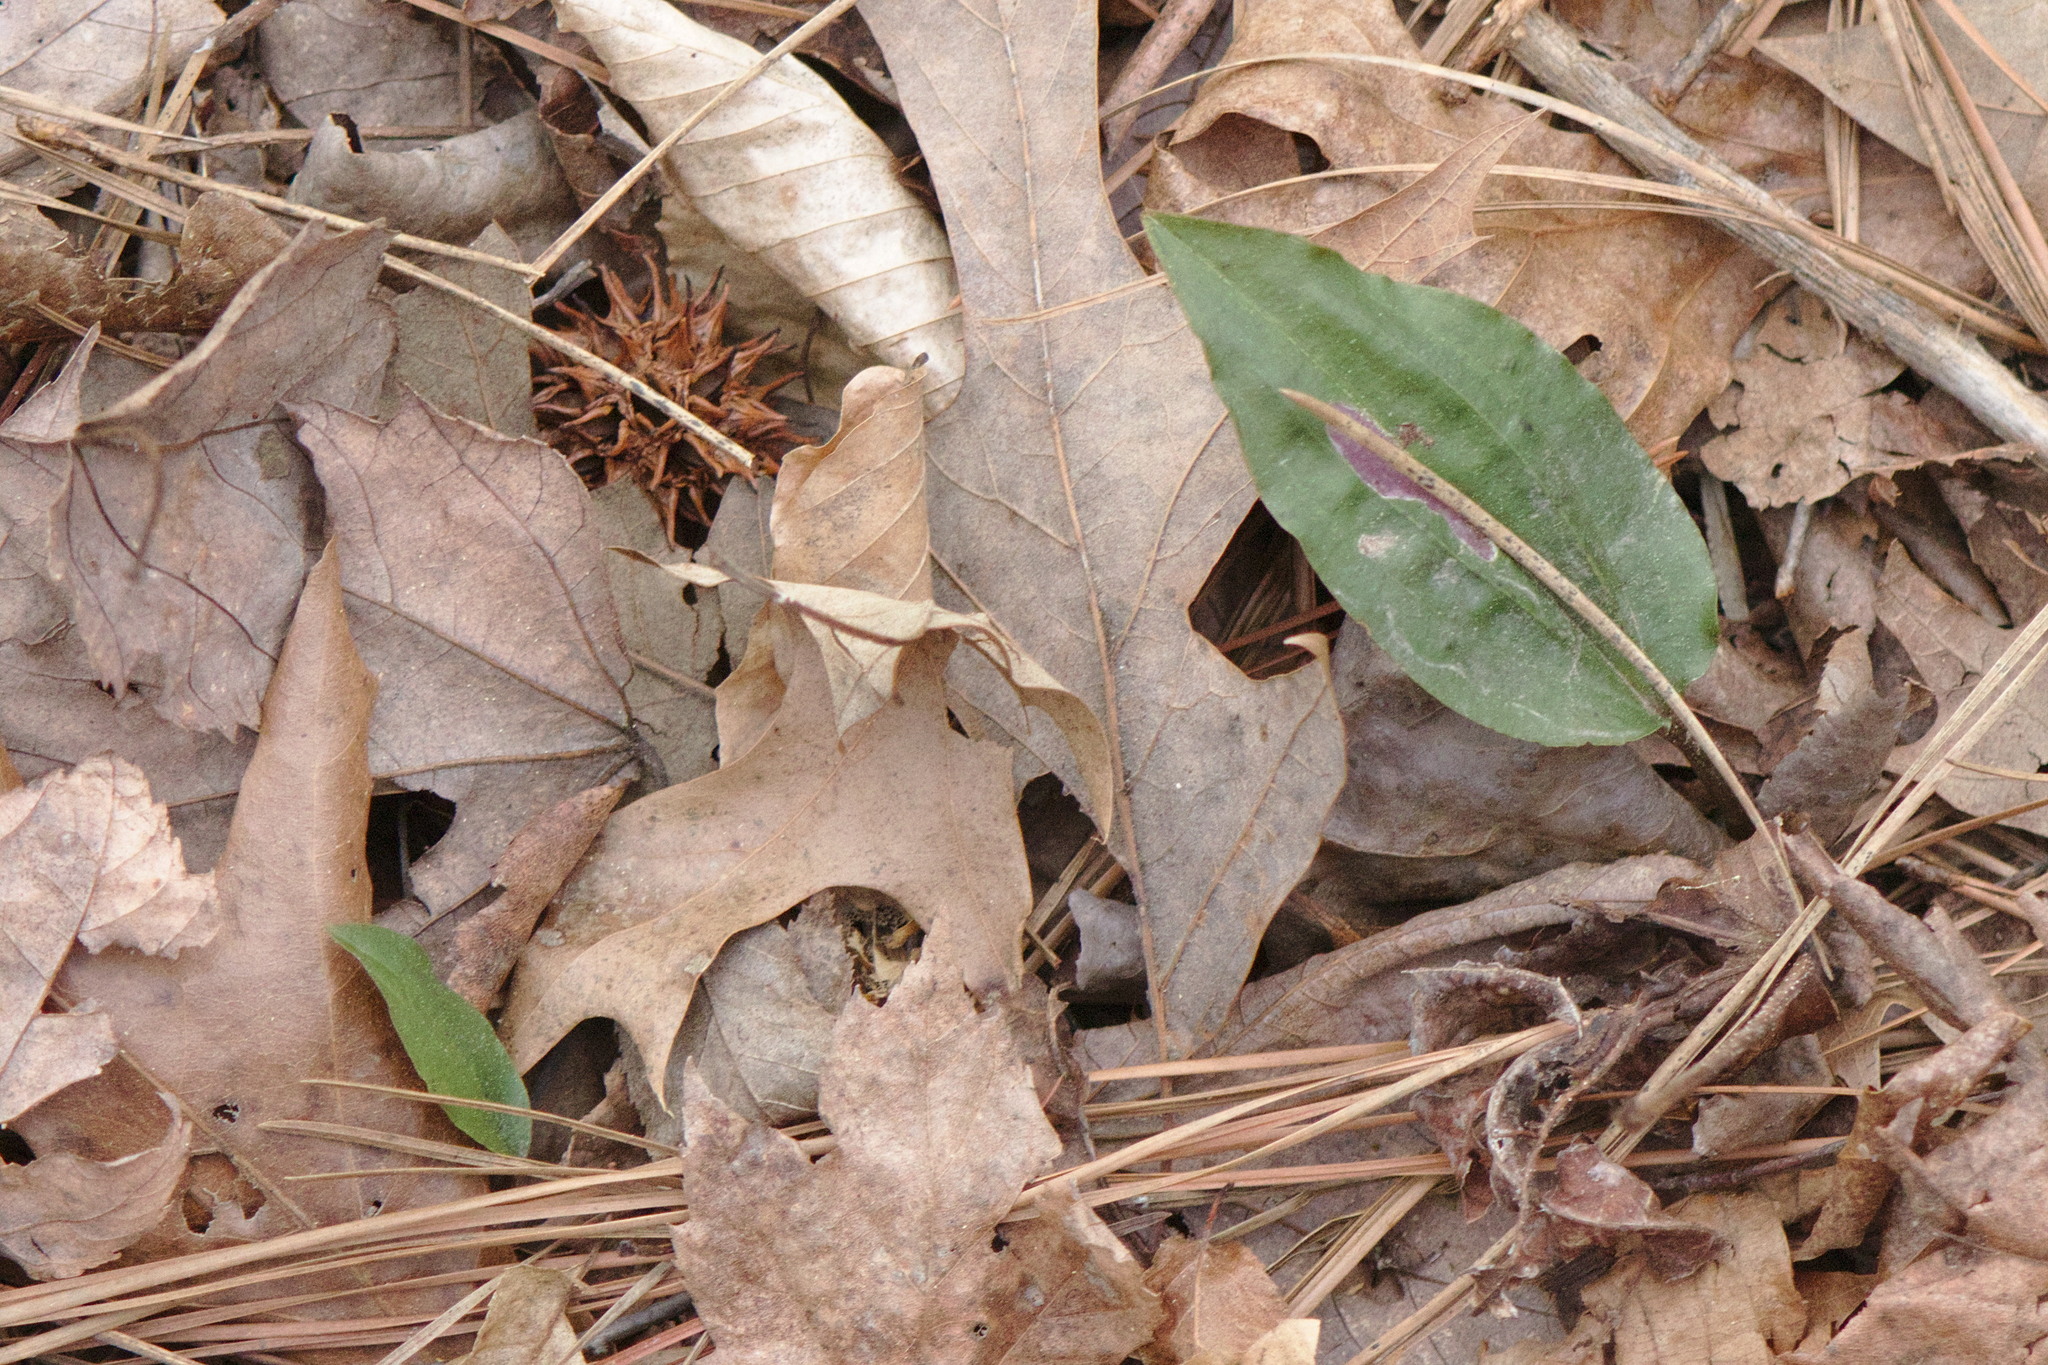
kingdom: Plantae
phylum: Tracheophyta
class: Liliopsida
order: Asparagales
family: Orchidaceae
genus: Tipularia
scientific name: Tipularia discolor
